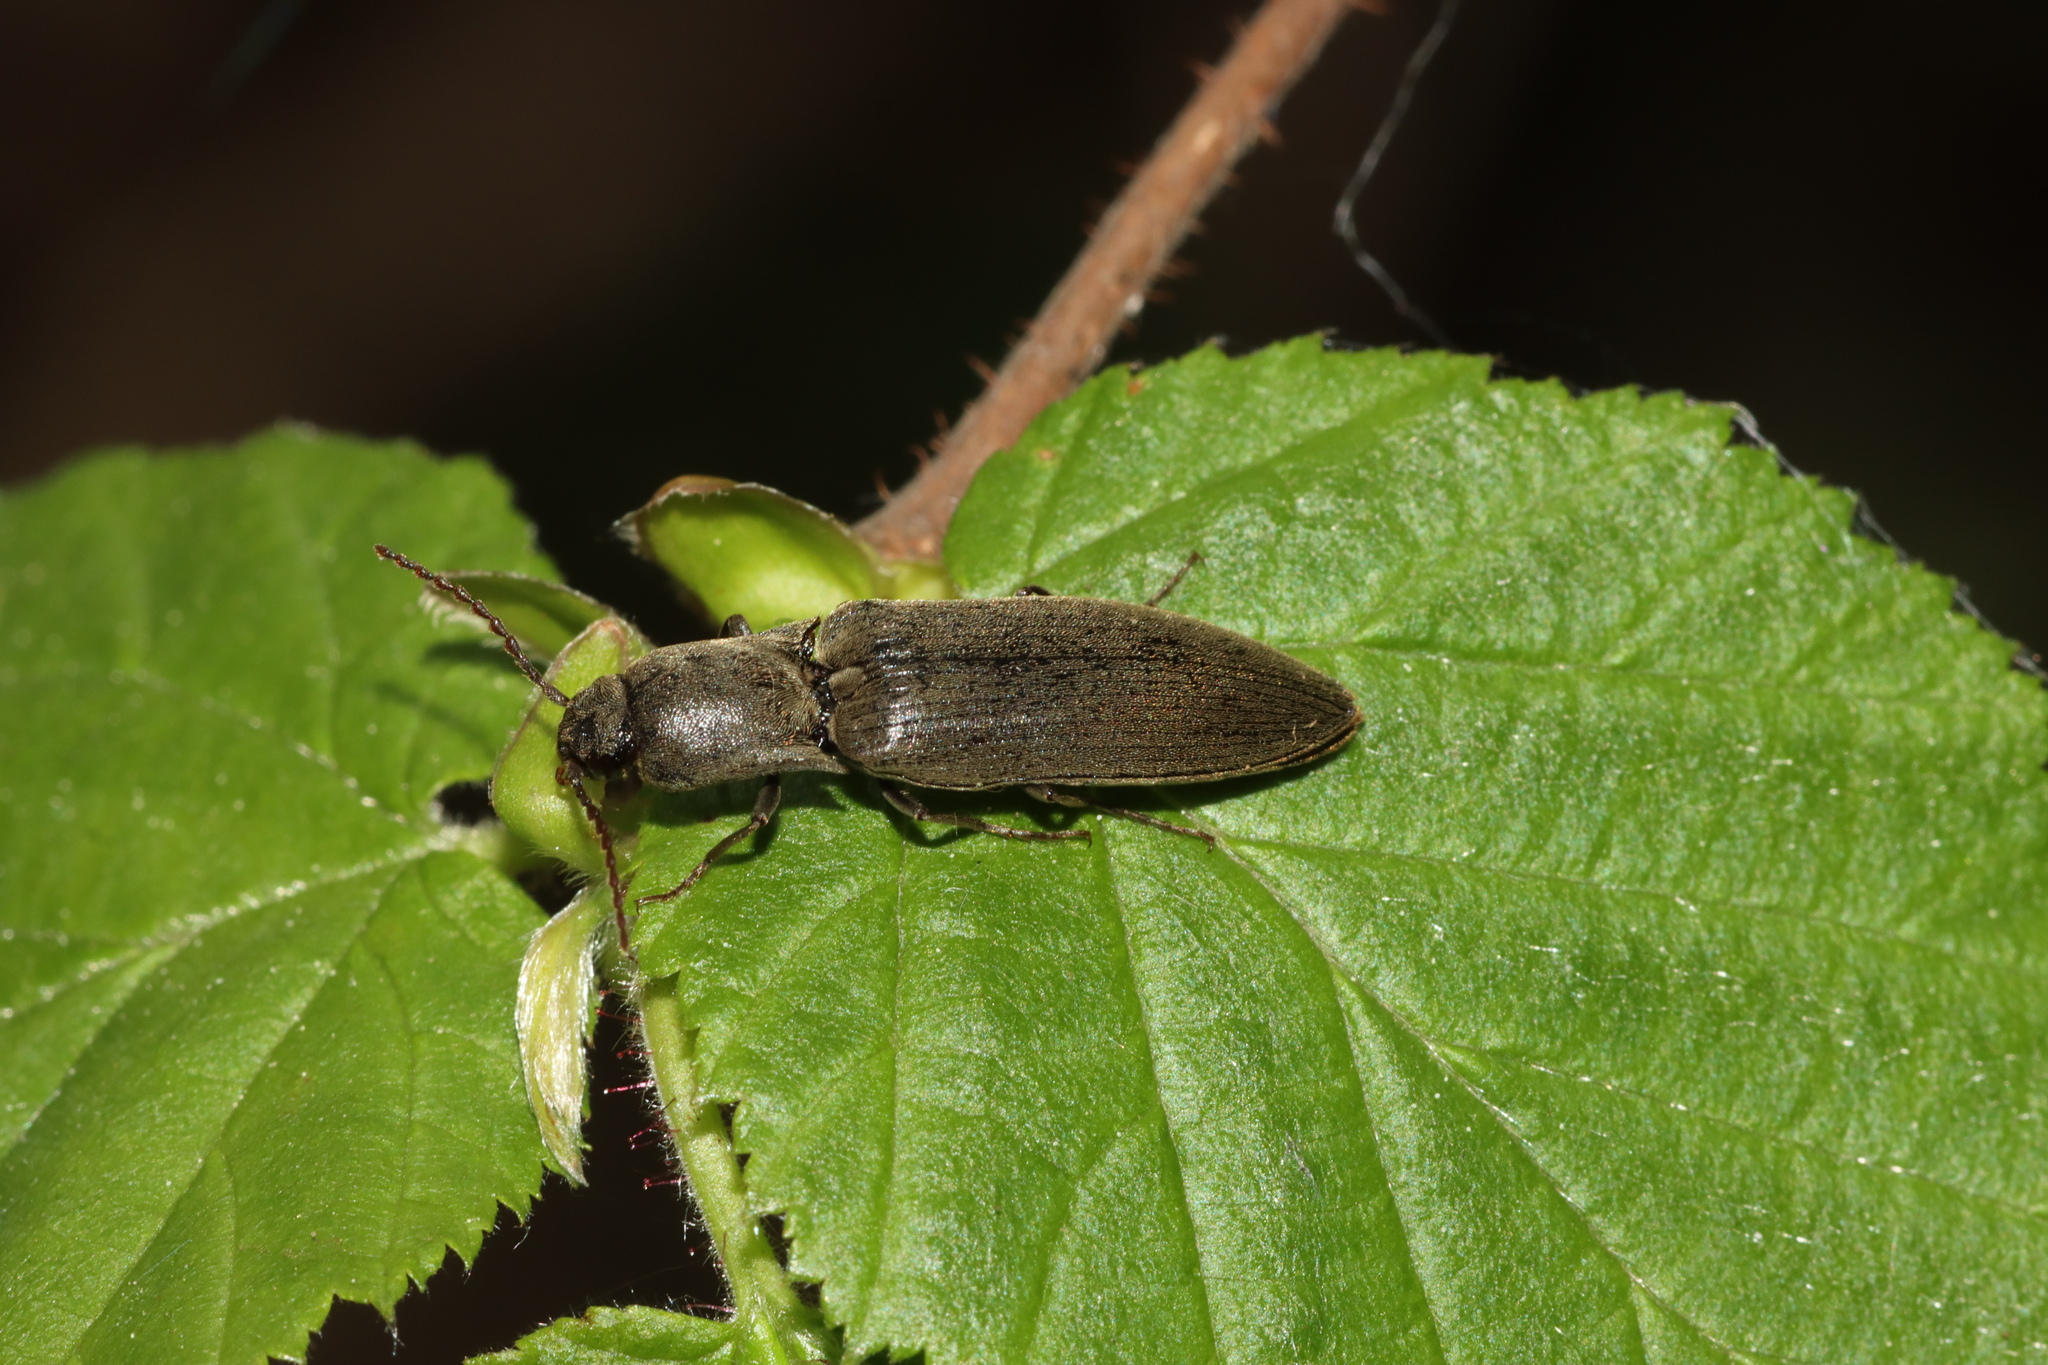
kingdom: Animalia
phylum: Arthropoda
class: Insecta
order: Coleoptera
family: Elateridae
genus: Agriotes
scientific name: Agriotes pilosellus
